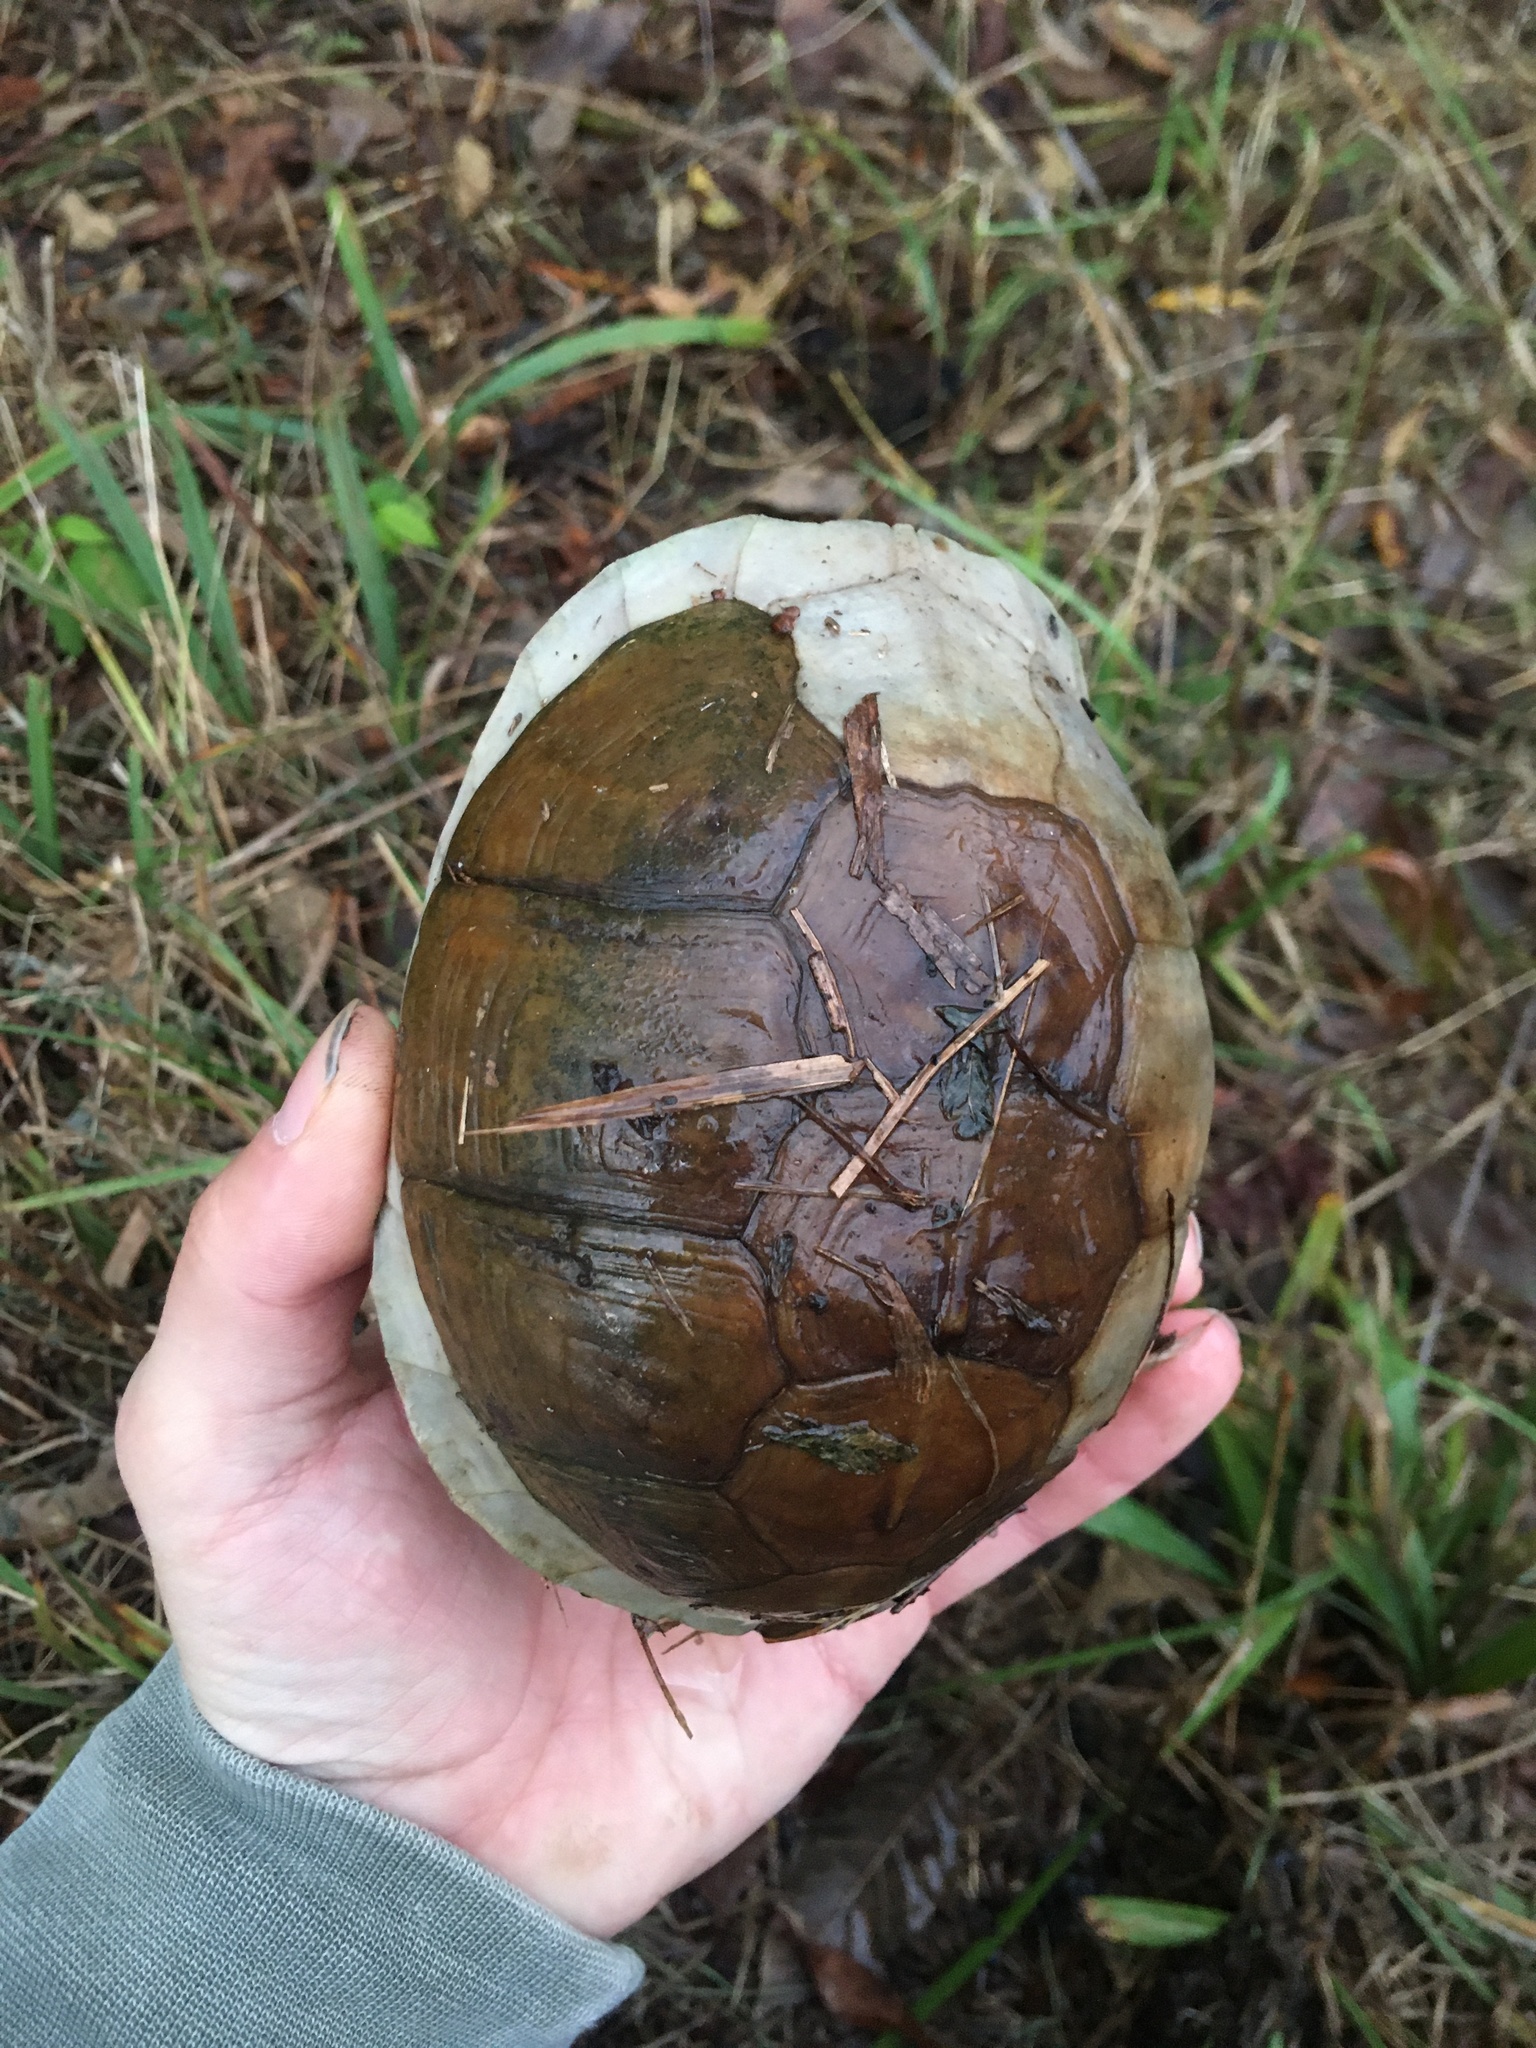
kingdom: Animalia
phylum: Chordata
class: Testudines
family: Emydidae
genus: Terrapene
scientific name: Terrapene carolina
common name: Common box turtle
